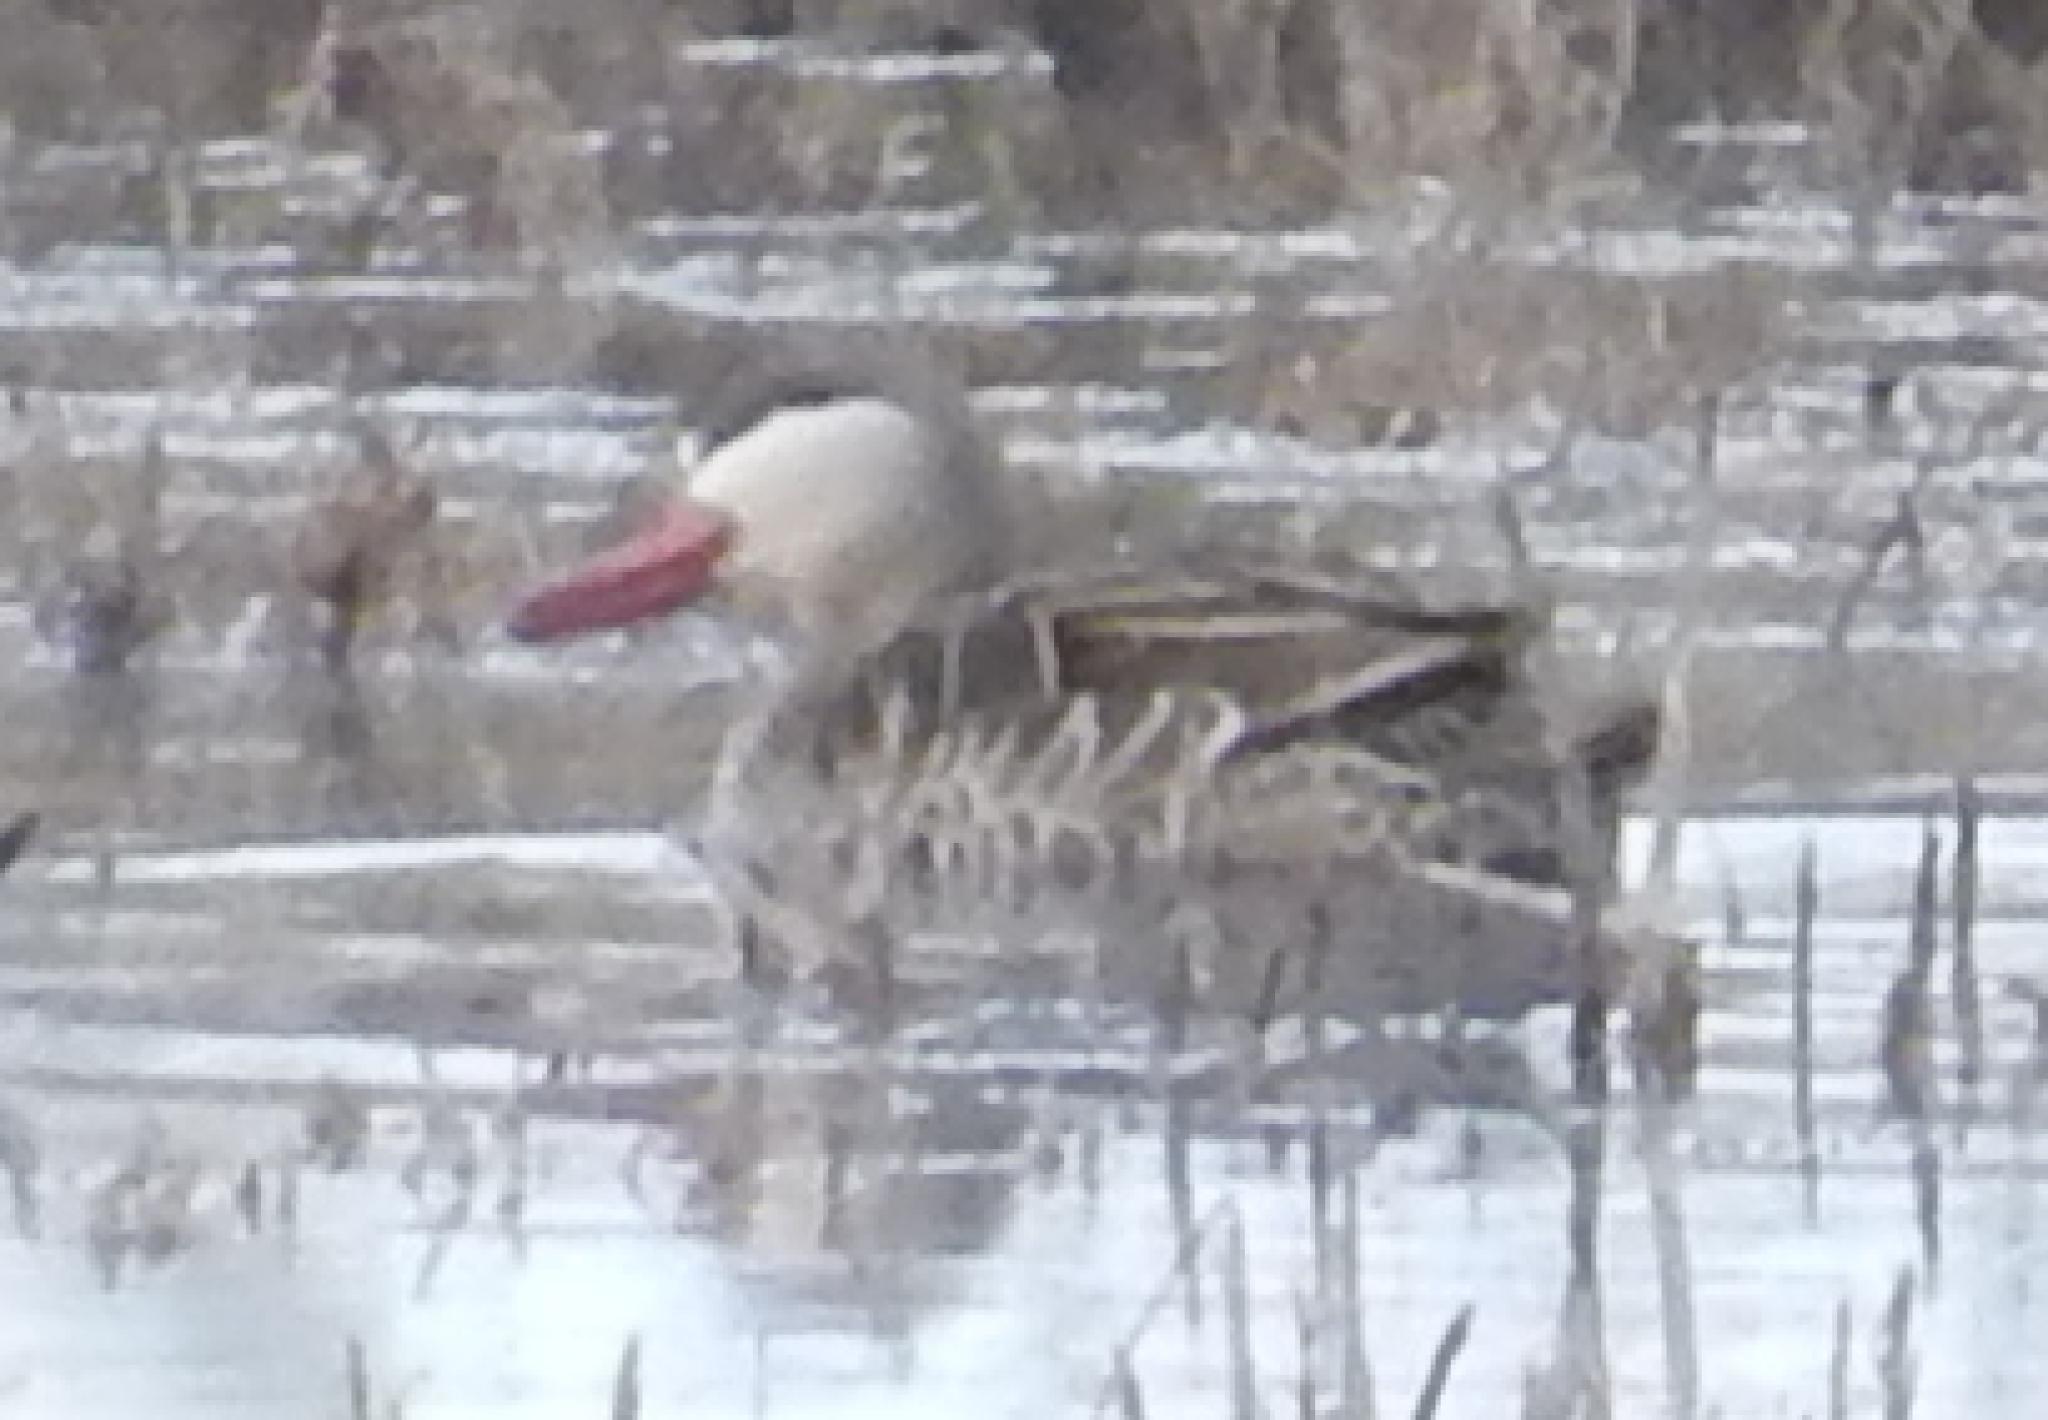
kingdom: Animalia
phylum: Chordata
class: Aves
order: Anseriformes
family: Anatidae
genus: Anas
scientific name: Anas erythrorhyncha
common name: Red-billed teal
